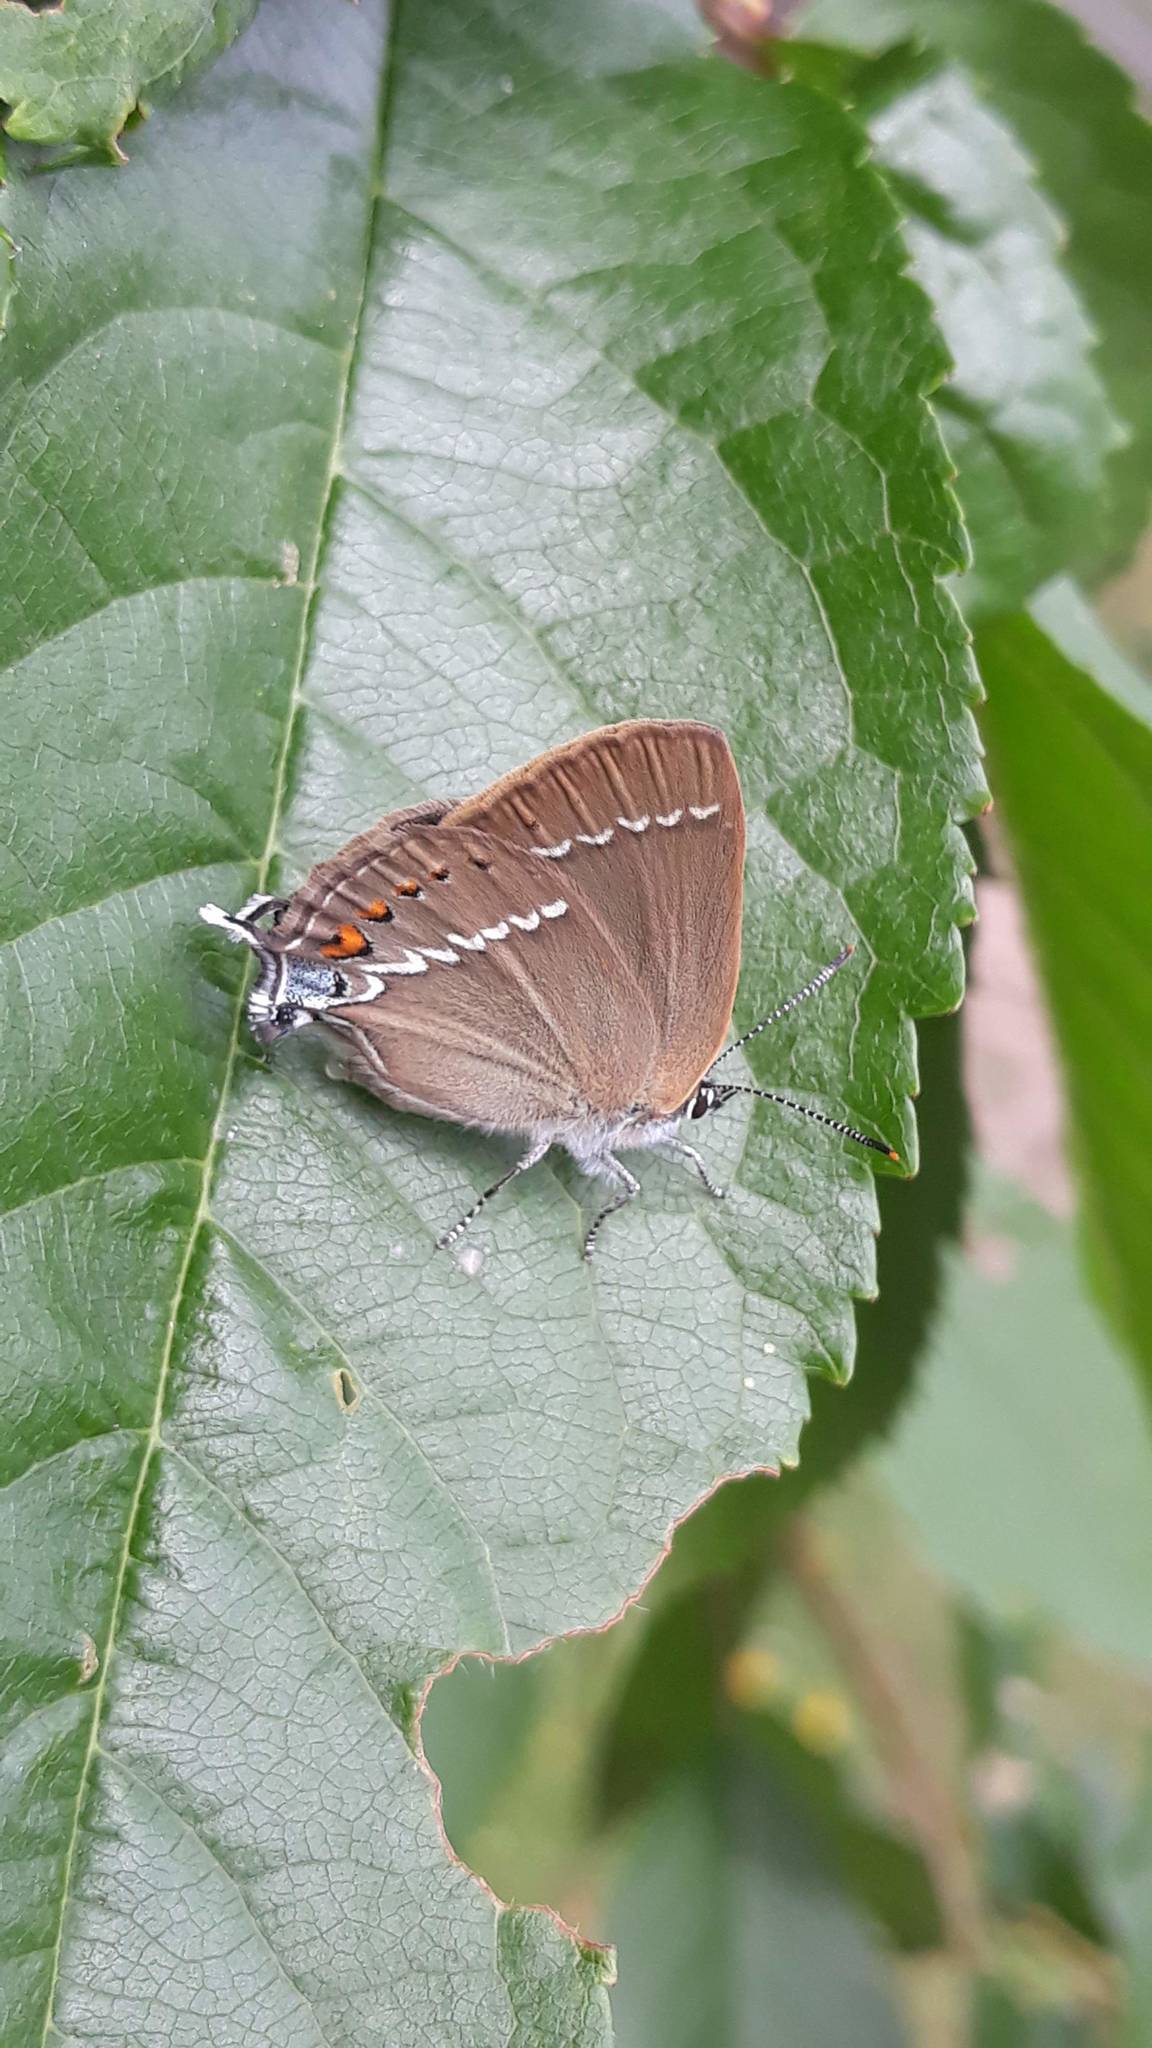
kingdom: Animalia
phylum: Arthropoda
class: Insecta
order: Lepidoptera
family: Lycaenidae
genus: Tuttiola
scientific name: Tuttiola spini
